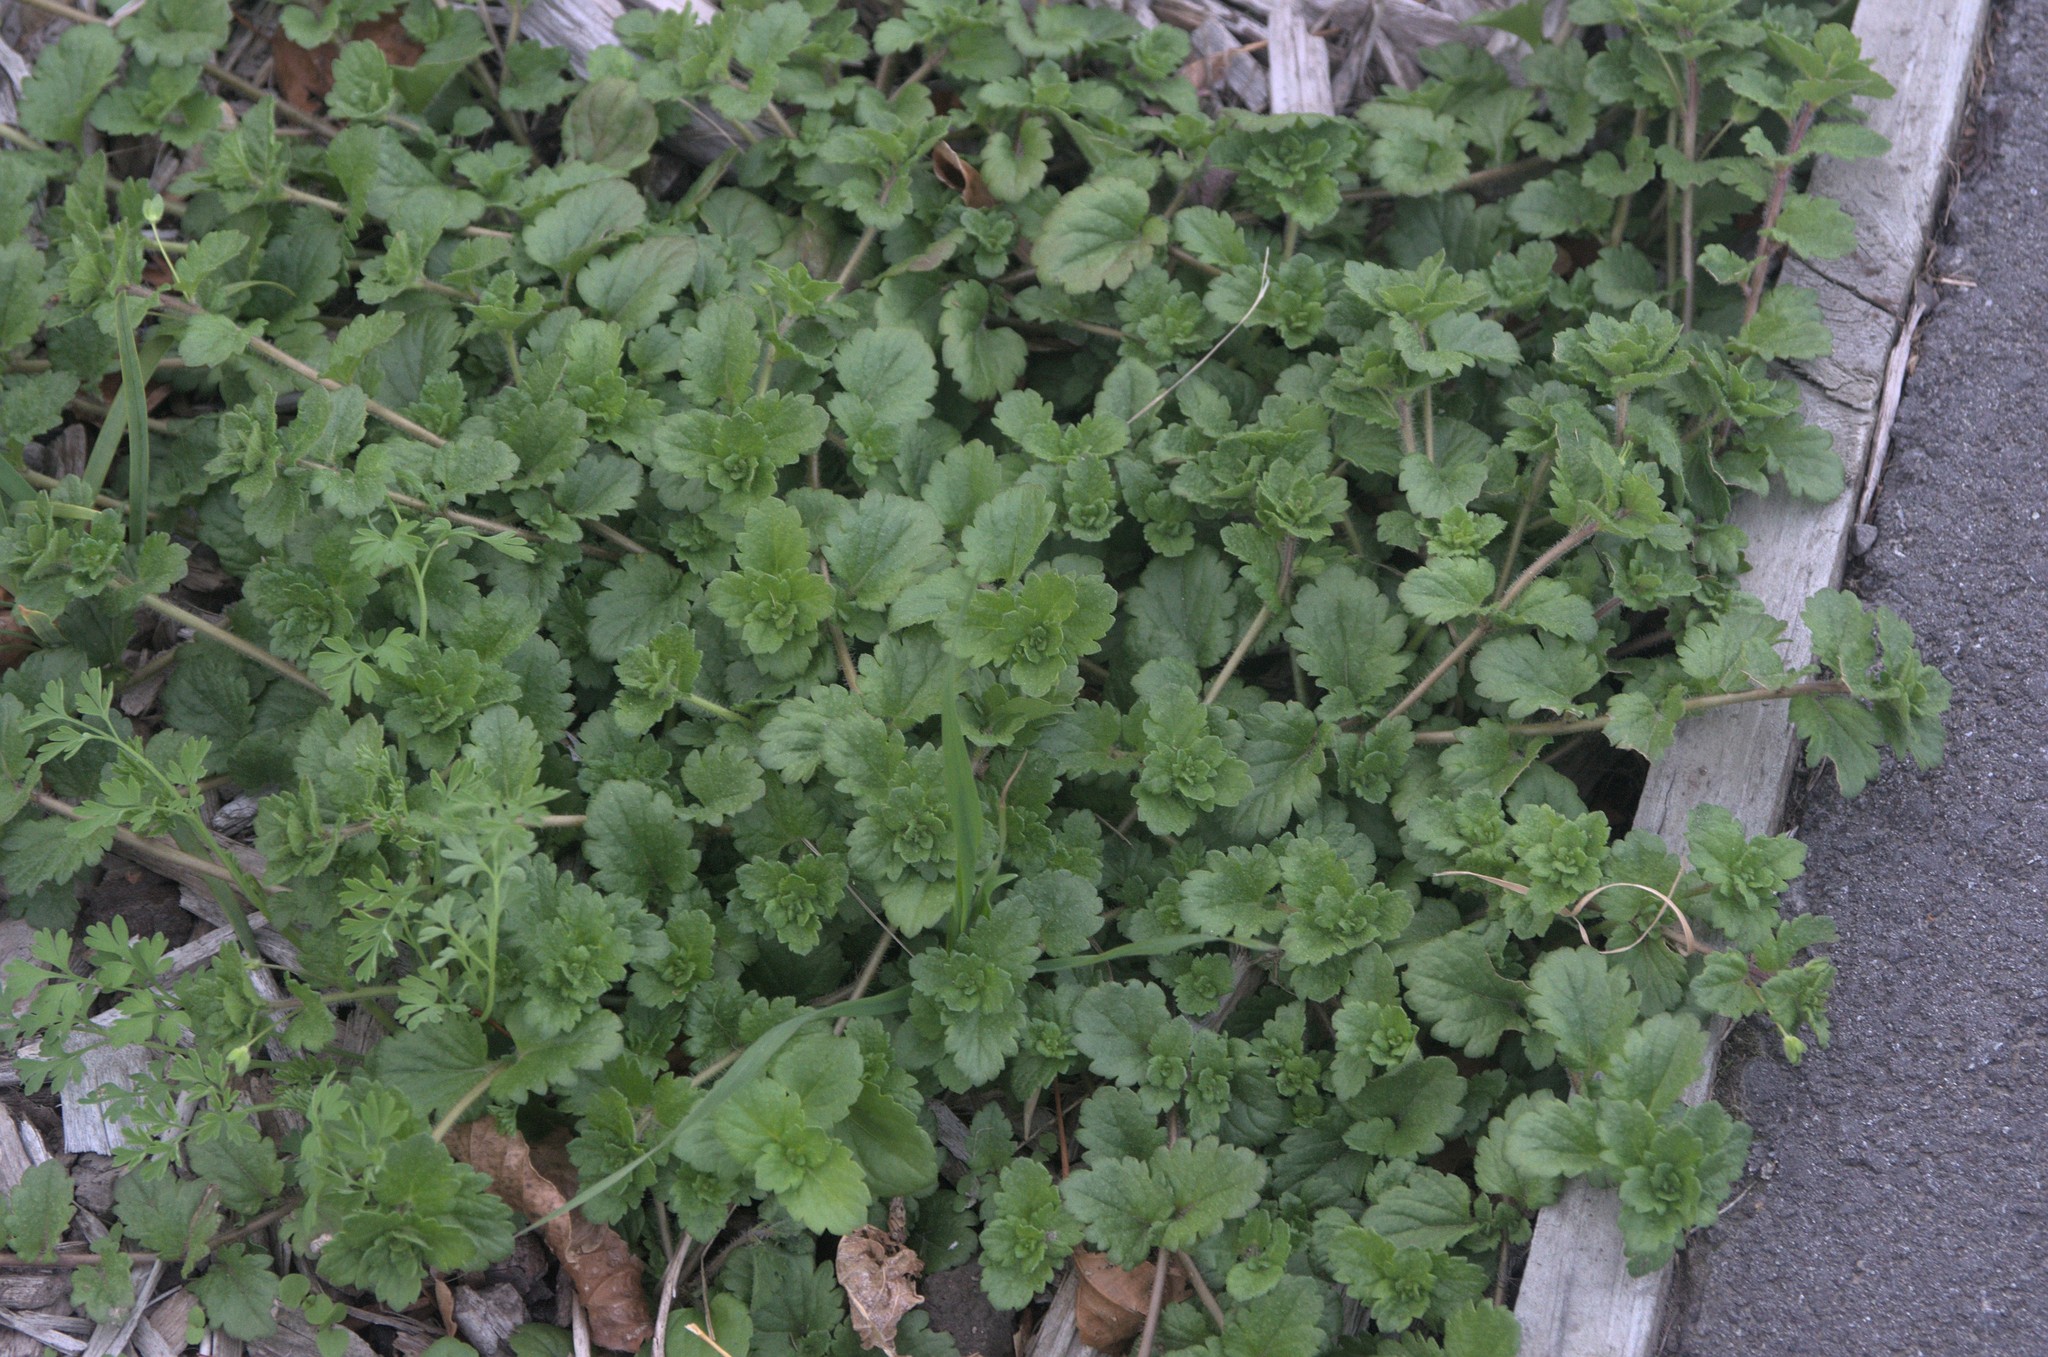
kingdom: Plantae
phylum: Tracheophyta
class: Magnoliopsida
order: Lamiales
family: Plantaginaceae
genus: Veronica
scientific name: Veronica persica
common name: Common field-speedwell
